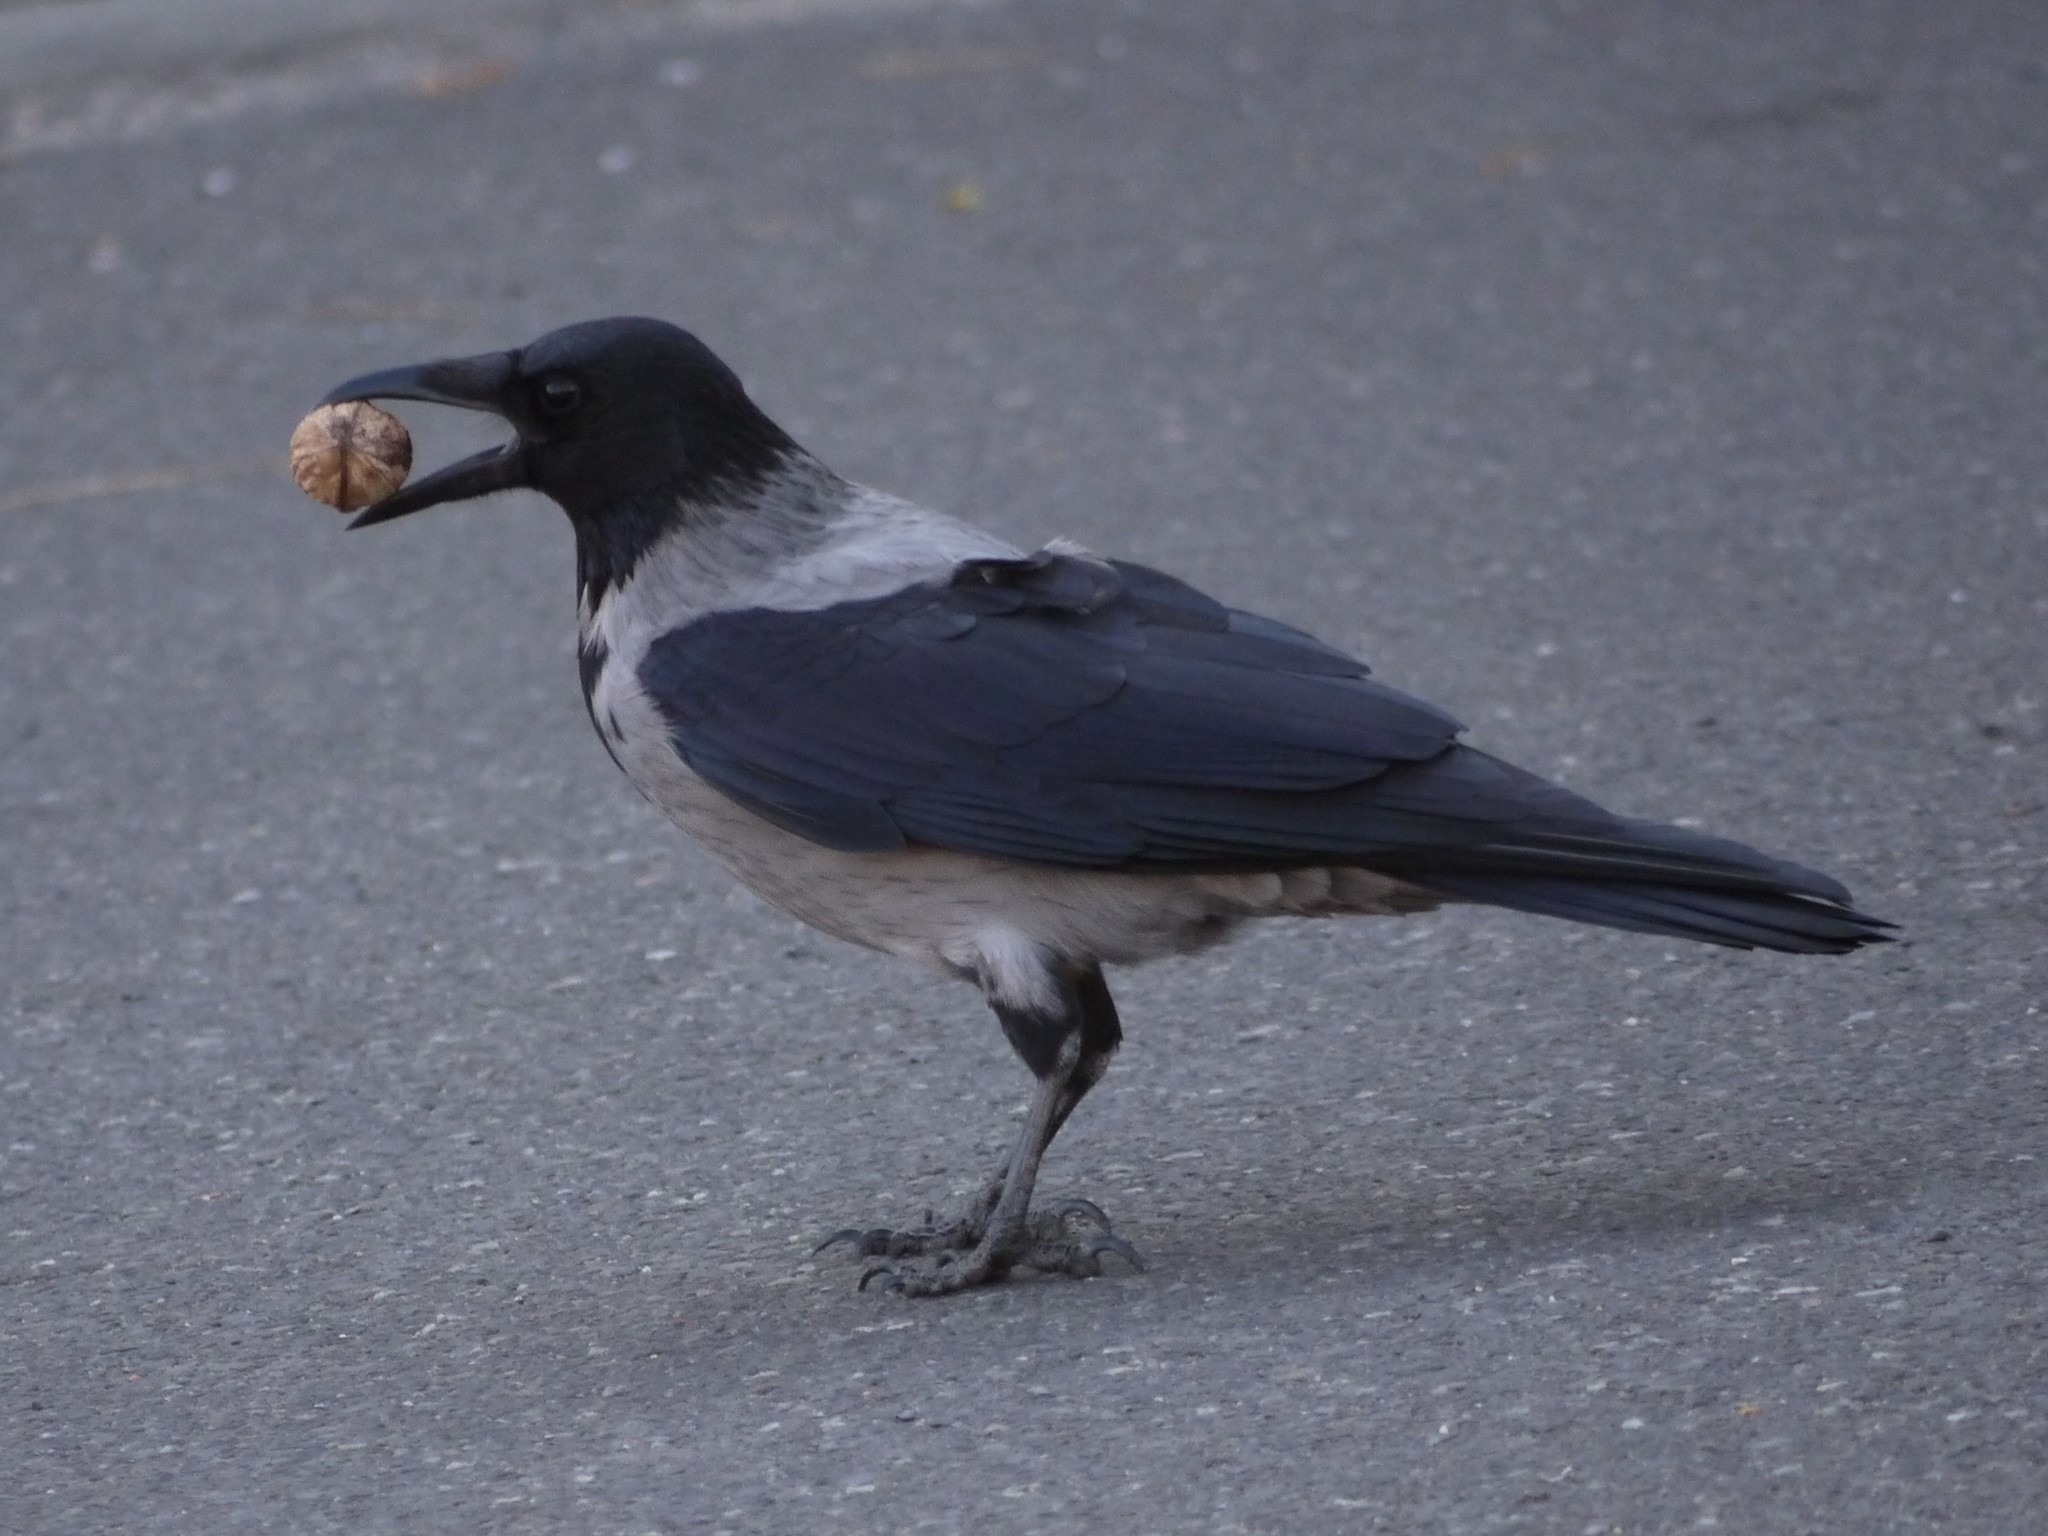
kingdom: Animalia
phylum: Chordata
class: Aves
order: Passeriformes
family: Corvidae
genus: Corvus
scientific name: Corvus cornix
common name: Hooded crow
